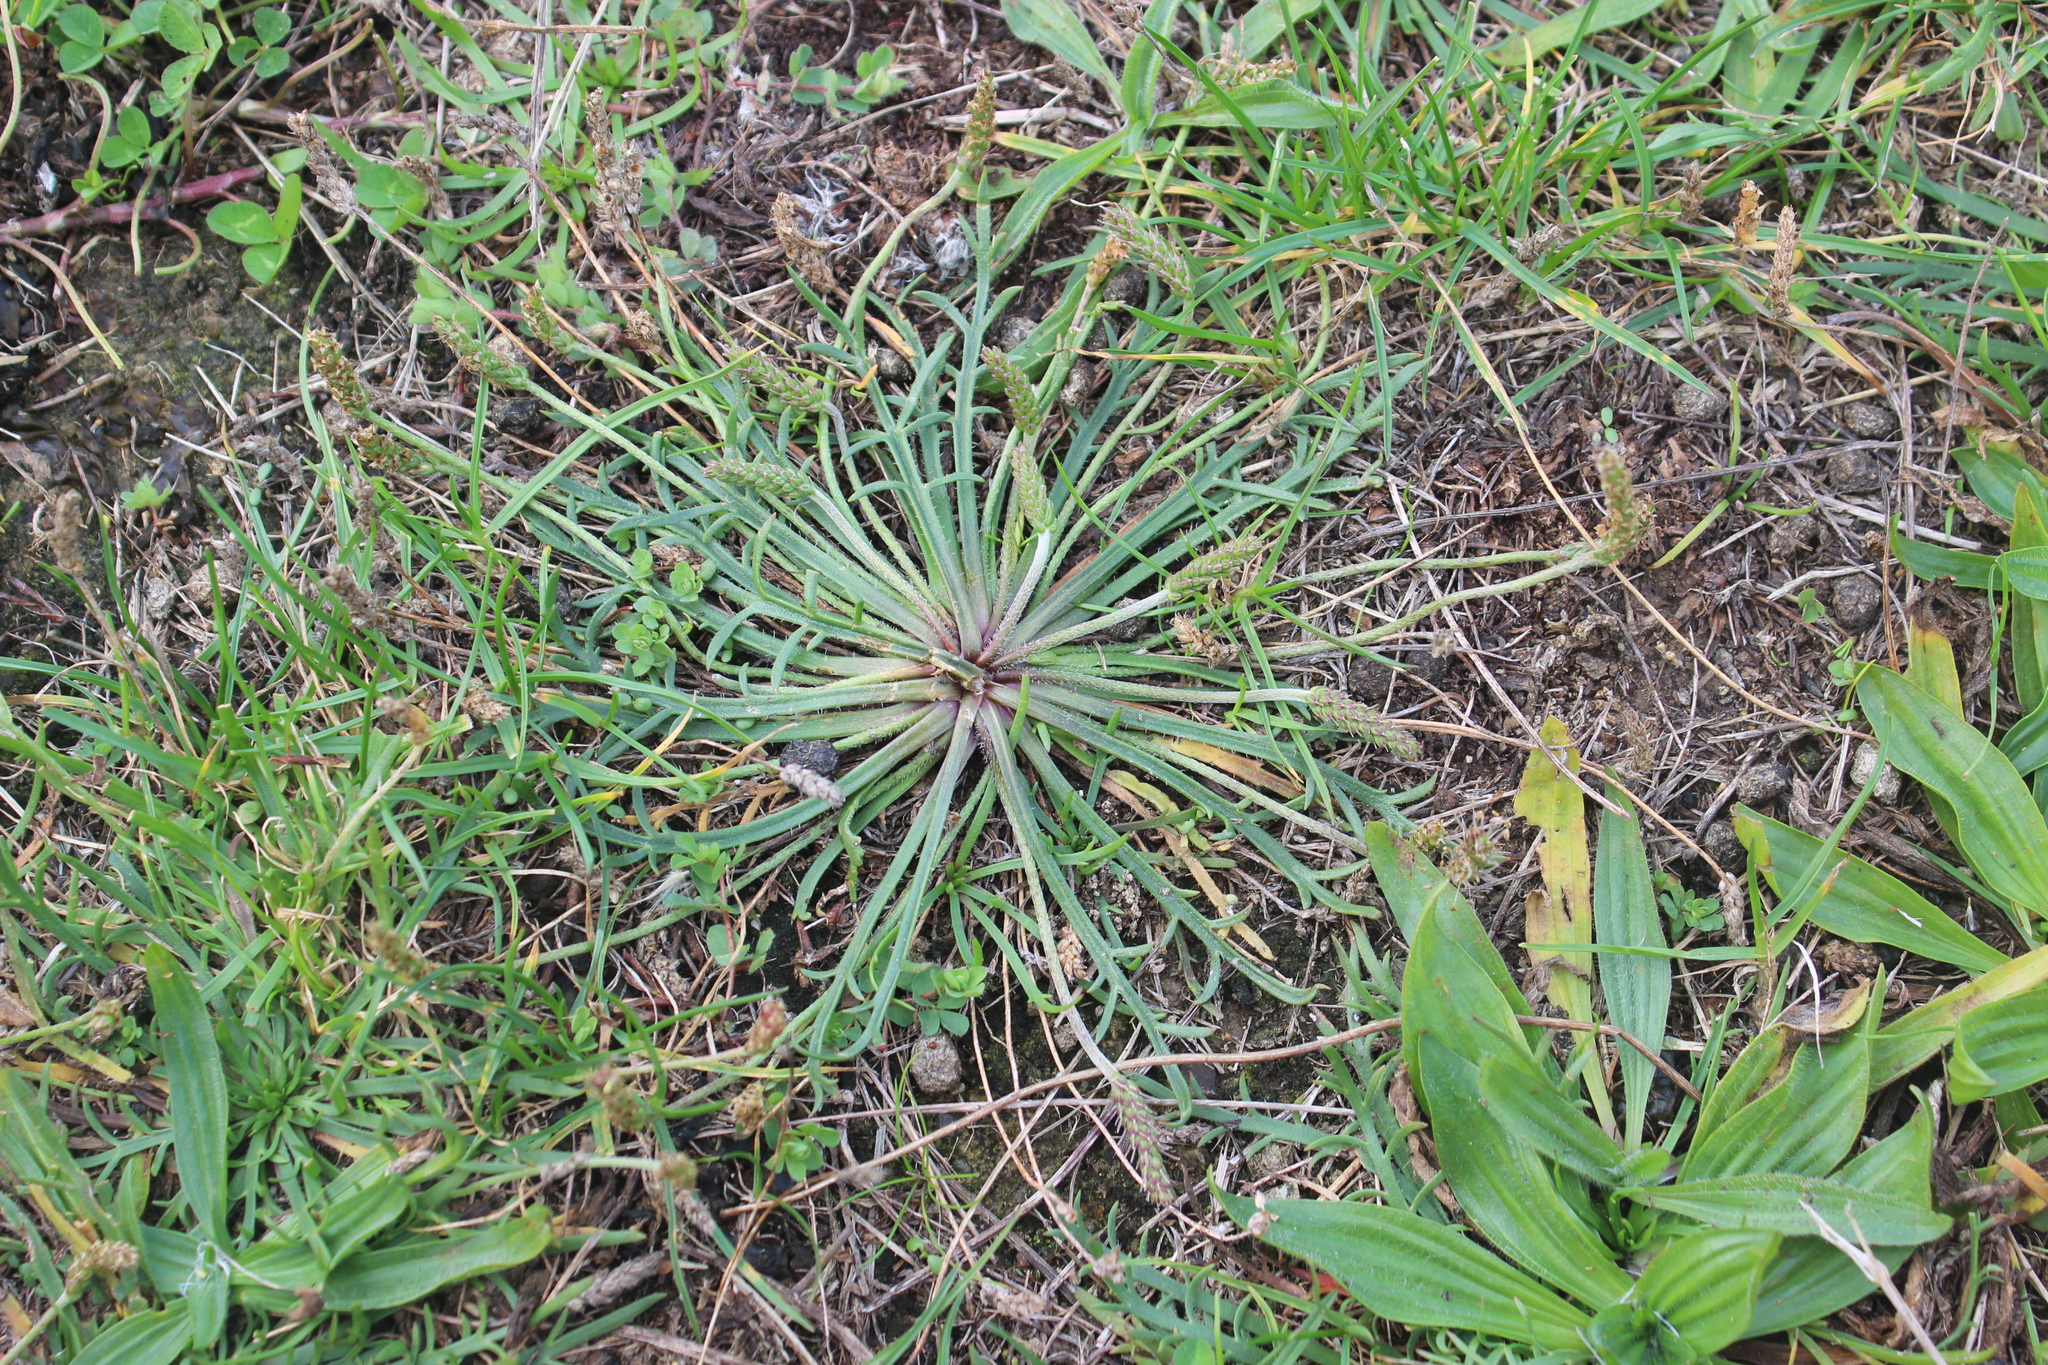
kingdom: Plantae
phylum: Tracheophyta
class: Magnoliopsida
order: Lamiales
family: Plantaginaceae
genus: Plantago
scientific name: Plantago coronopus
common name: Buck's-horn plantain
